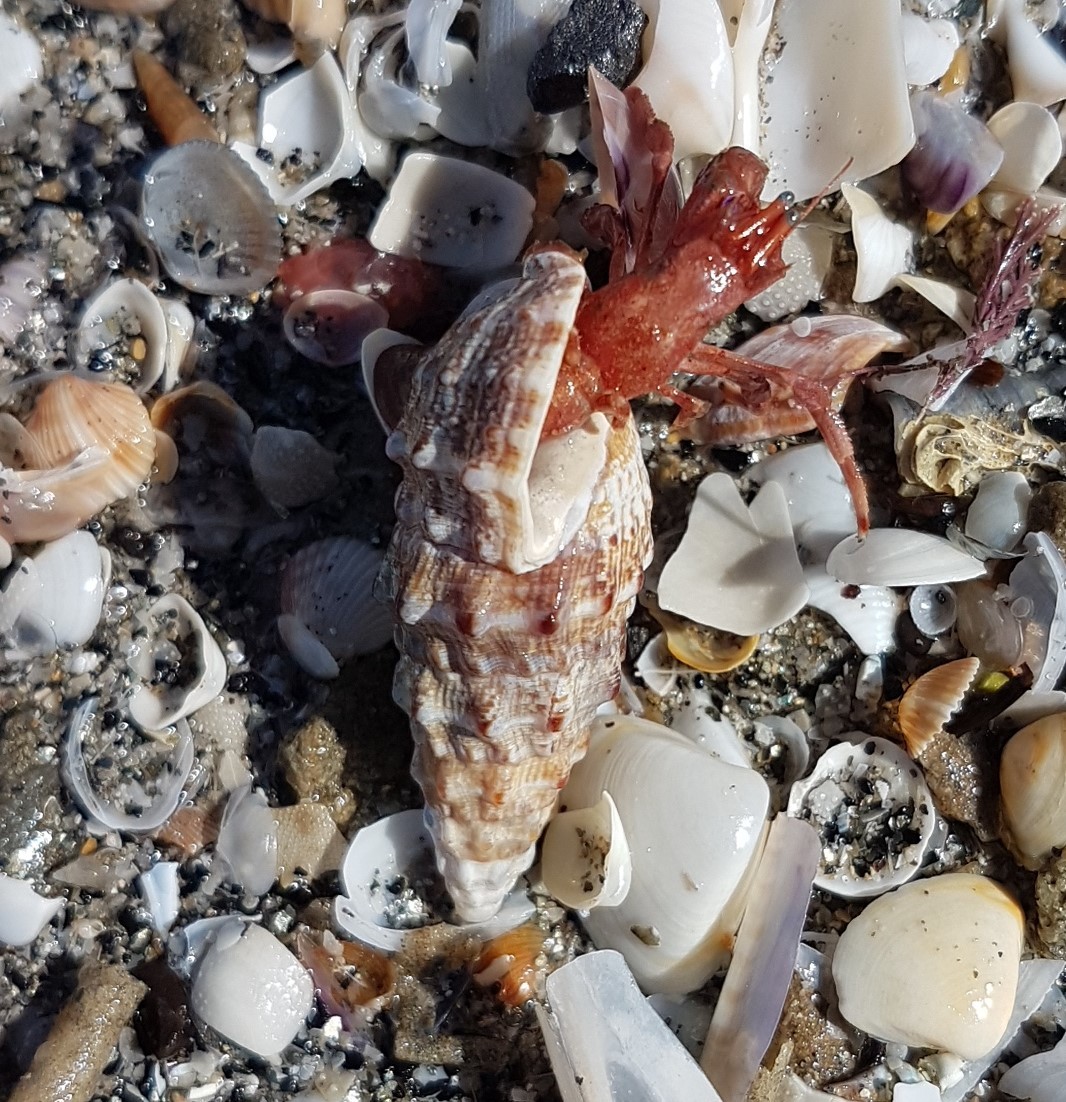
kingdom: Animalia
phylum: Mollusca
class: Gastropoda
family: Cerithiidae
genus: Cerithium
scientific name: Cerithium vulgatum
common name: European cerith
